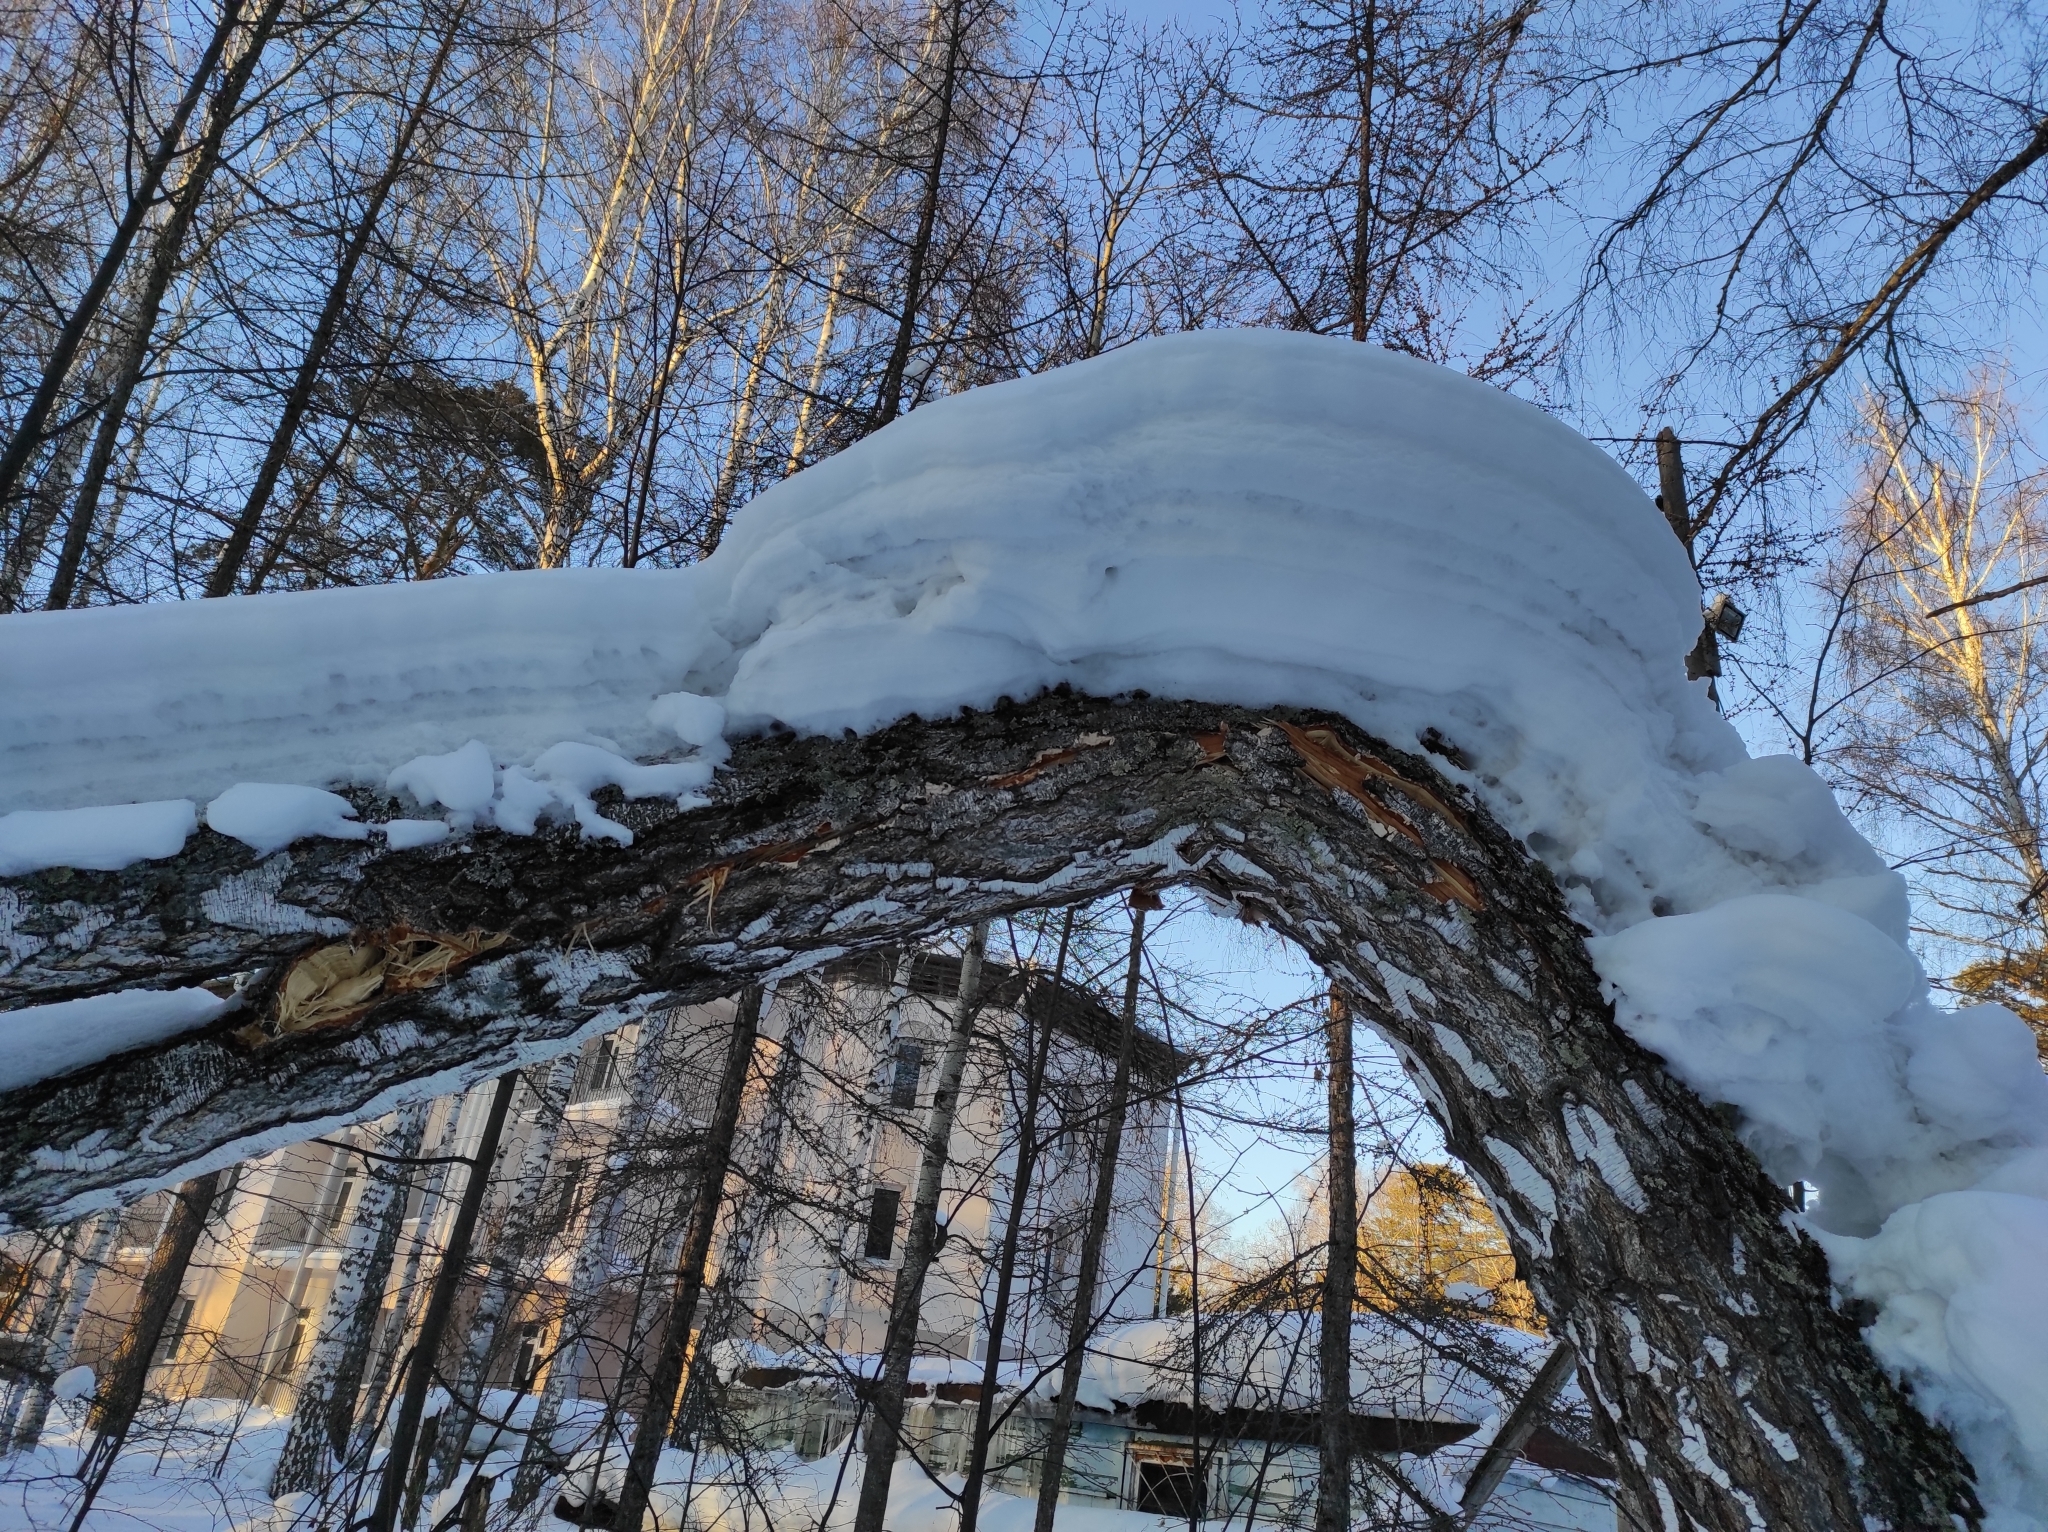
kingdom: Plantae
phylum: Tracheophyta
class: Magnoliopsida
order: Fagales
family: Betulaceae
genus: Betula
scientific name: Betula pendula
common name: Silver birch
